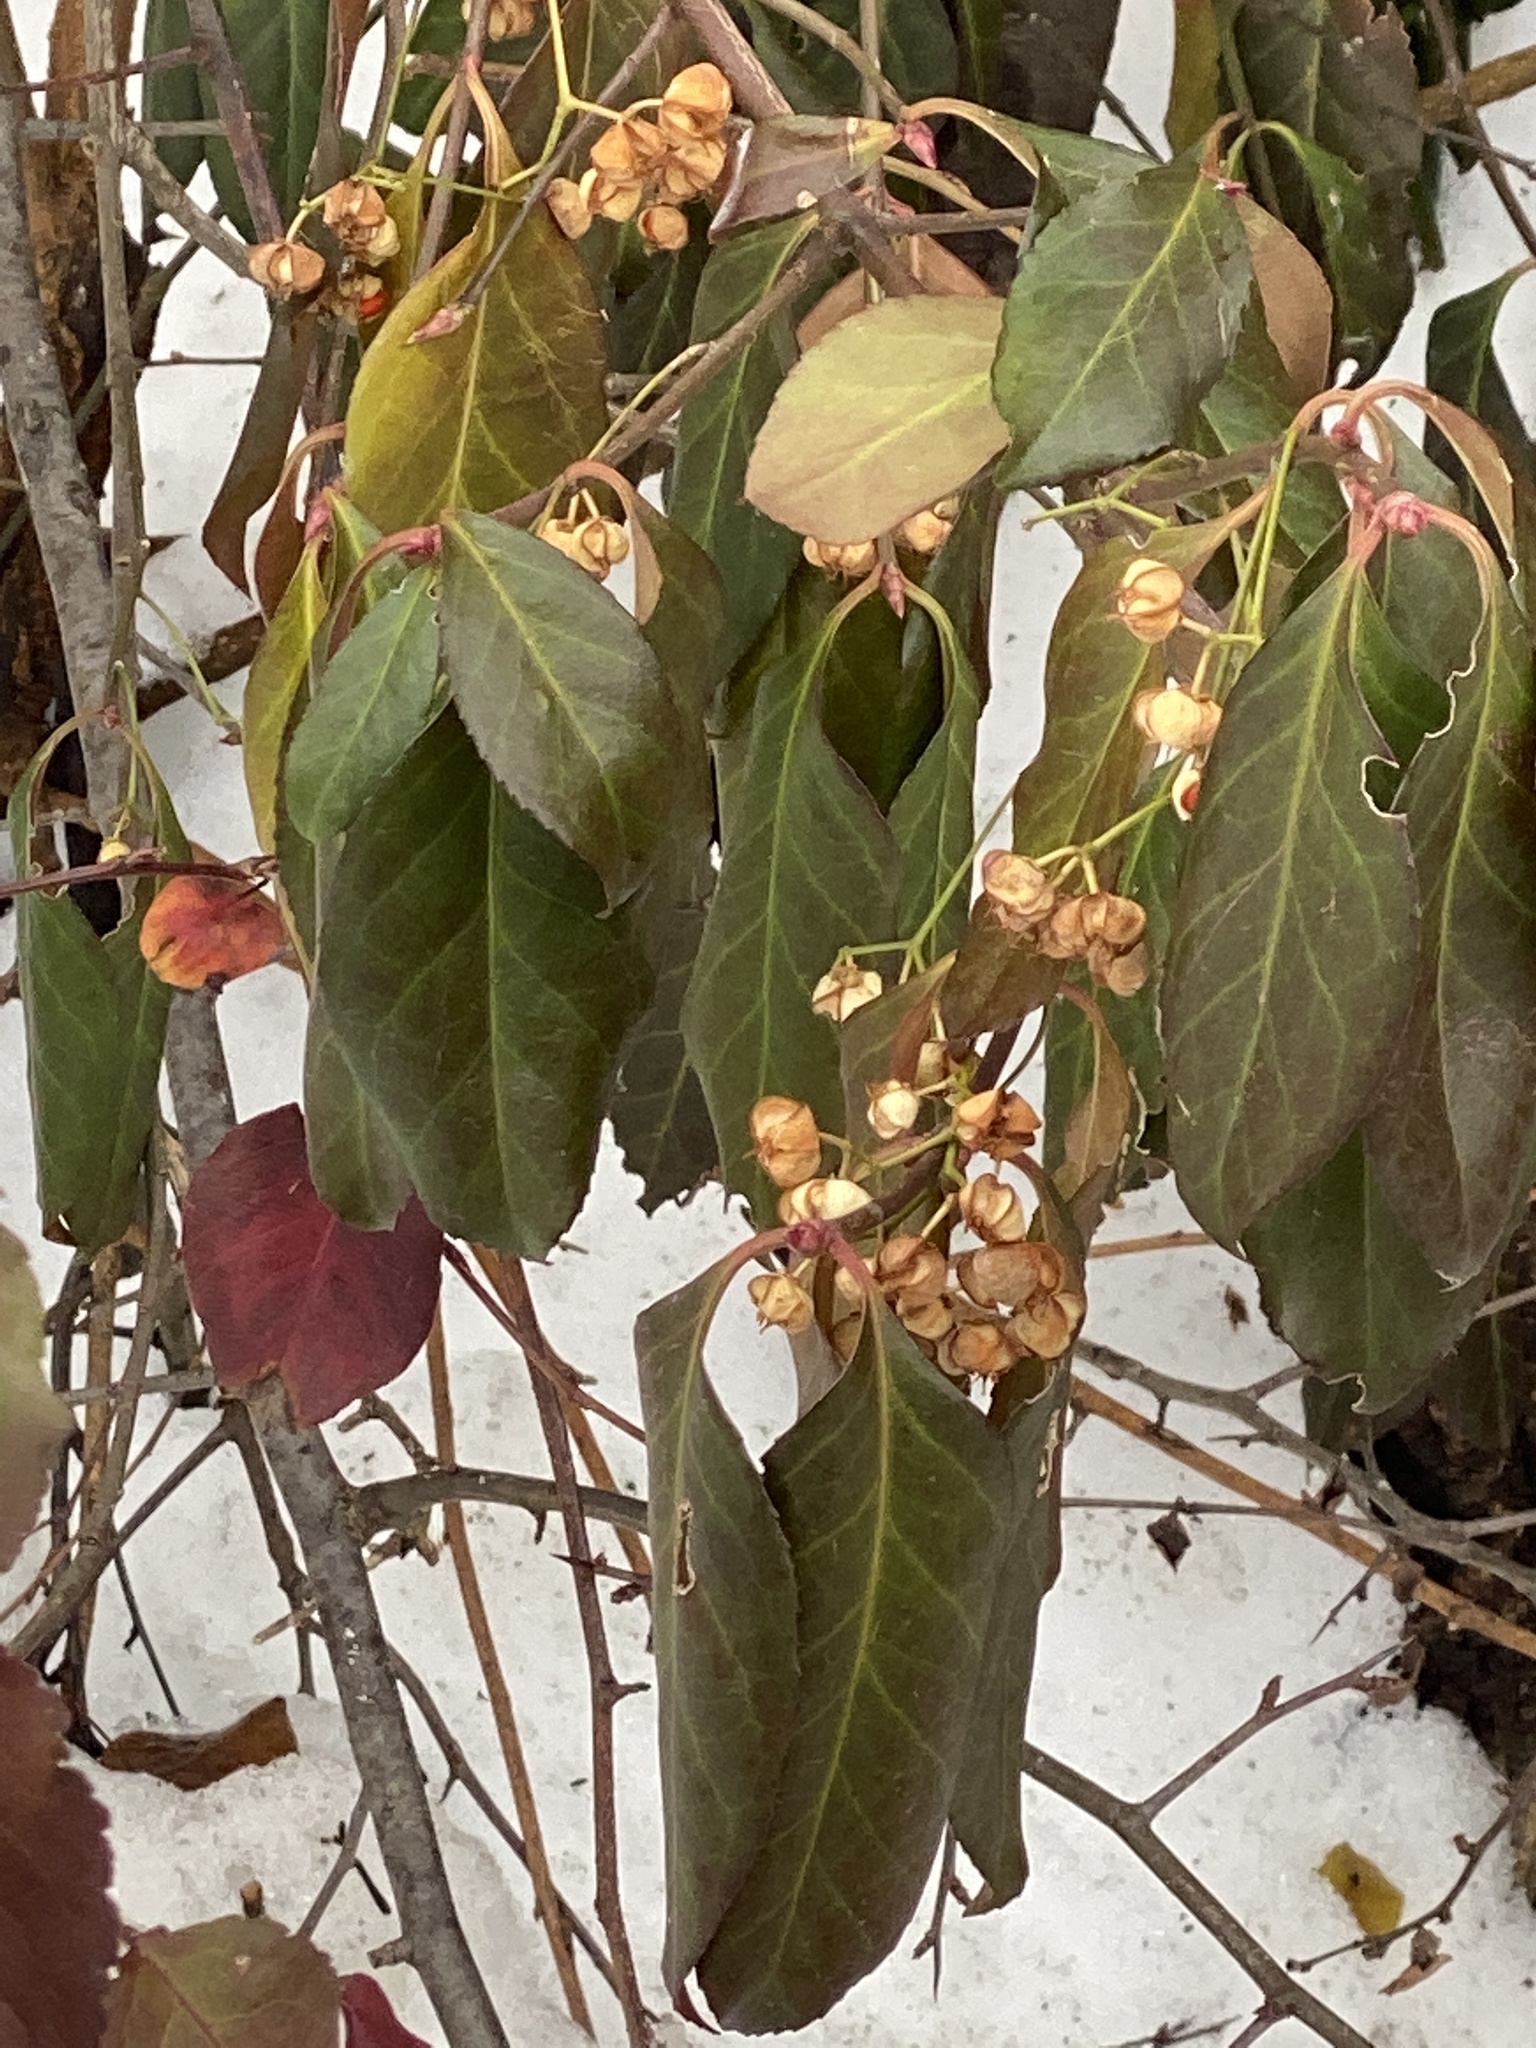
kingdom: Plantae
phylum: Tracheophyta
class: Magnoliopsida
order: Celastrales
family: Celastraceae
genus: Euonymus
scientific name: Euonymus fortunei
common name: Climbing euonymus
